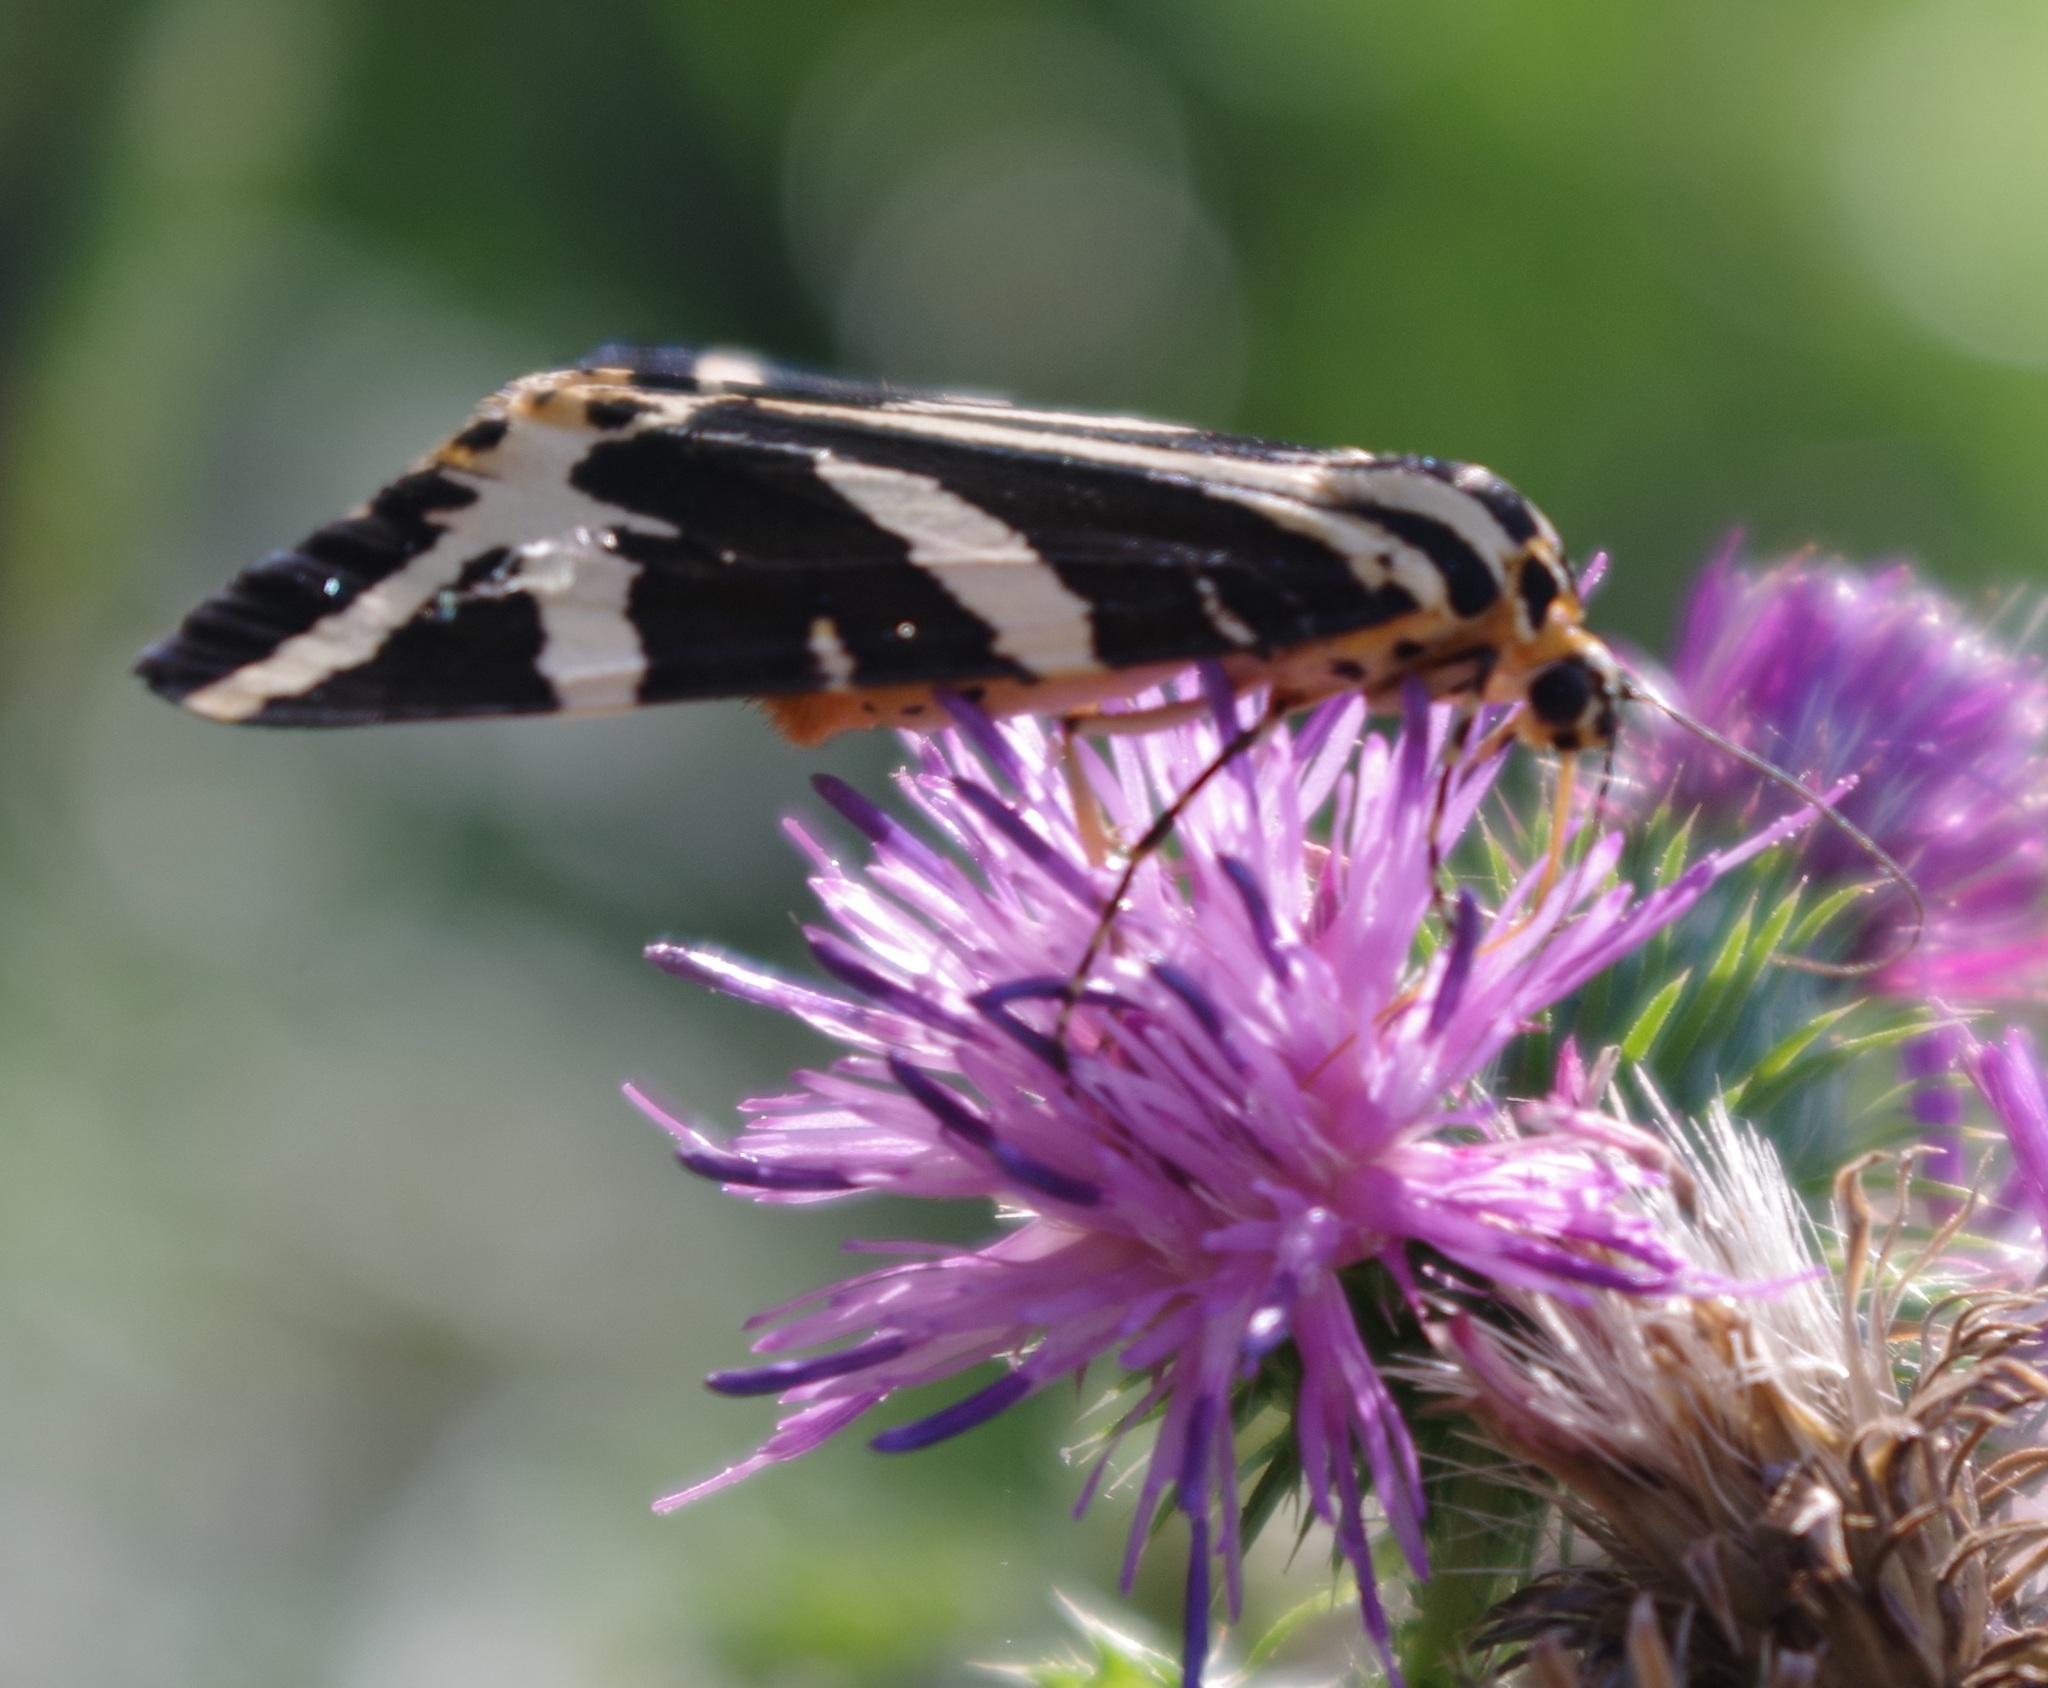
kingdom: Animalia
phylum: Arthropoda
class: Insecta
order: Lepidoptera
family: Erebidae
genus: Euplagia
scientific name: Euplagia quadripunctaria
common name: Jersey tiger
